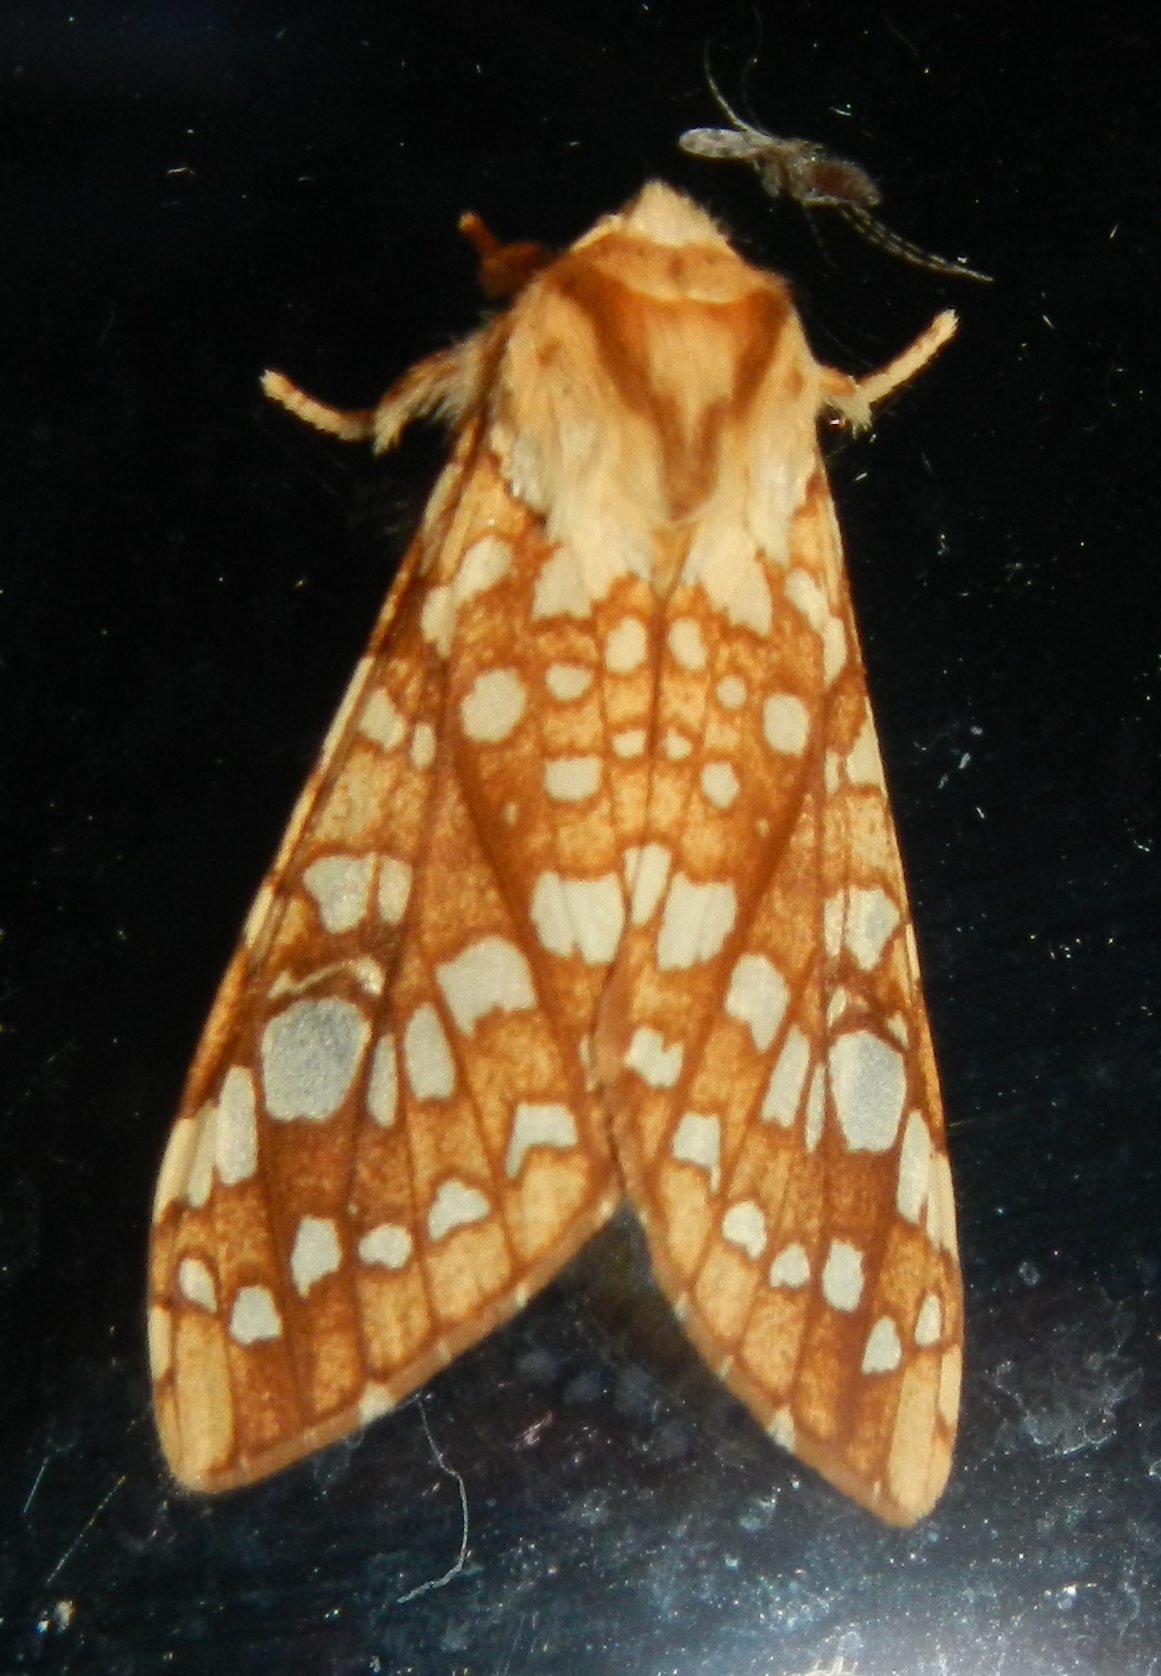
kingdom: Animalia
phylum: Arthropoda
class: Insecta
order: Lepidoptera
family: Erebidae
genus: Lophocampa
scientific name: Lophocampa caryae
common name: Hickory tussock moth
